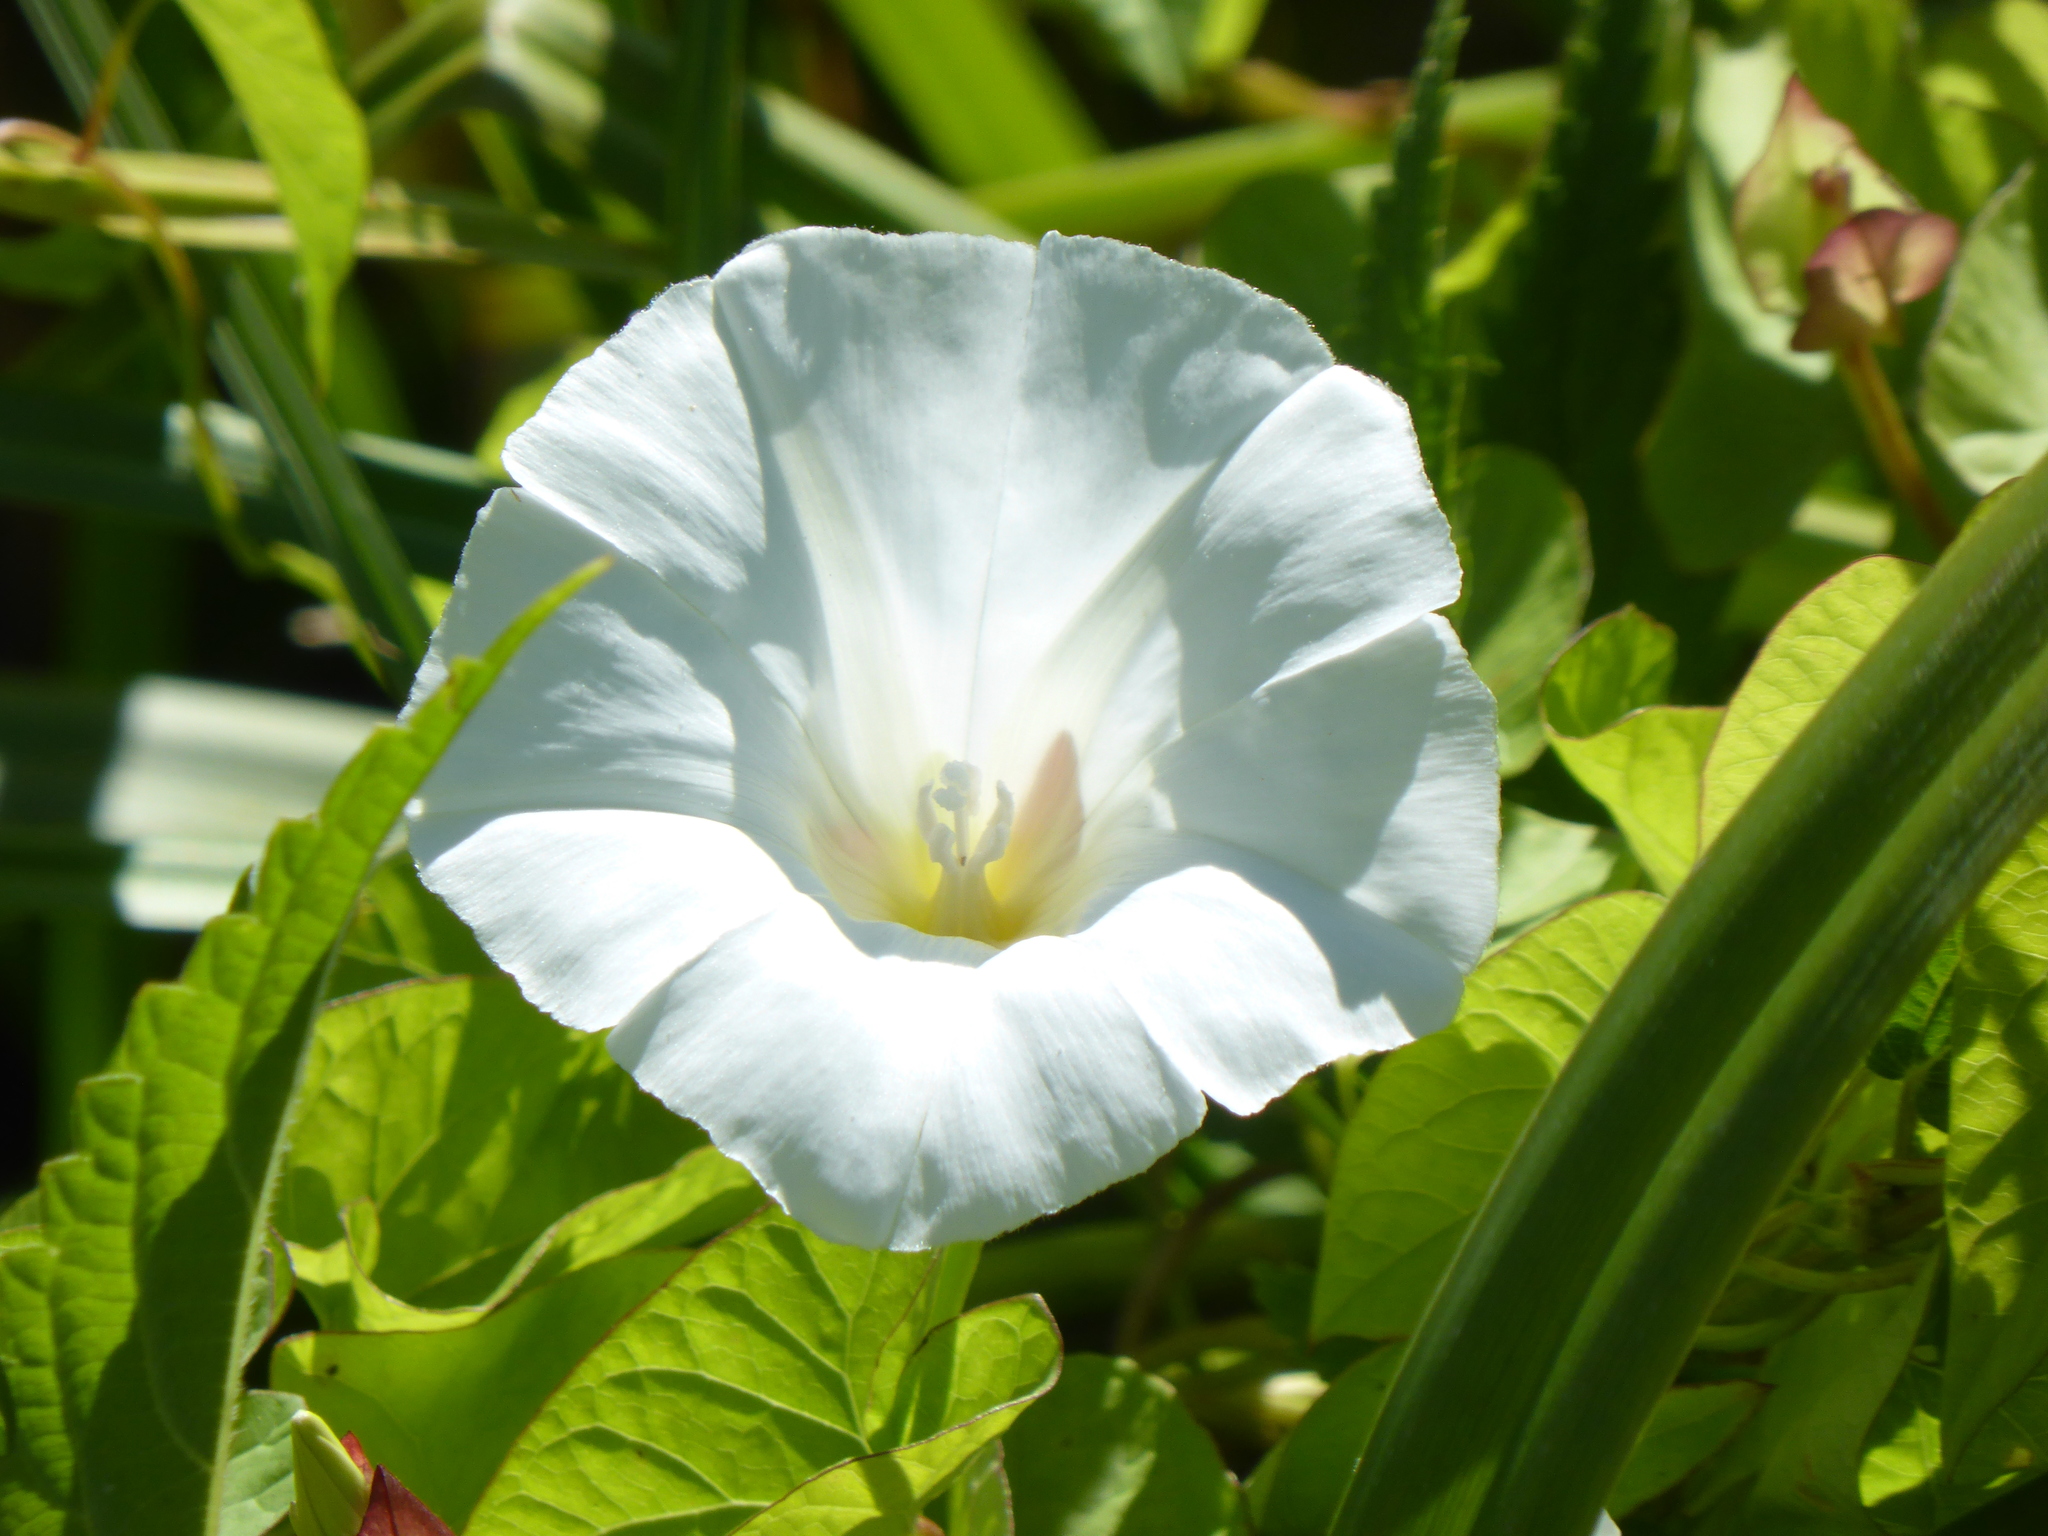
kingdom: Plantae
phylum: Tracheophyta
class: Magnoliopsida
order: Solanales
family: Convolvulaceae
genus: Calystegia
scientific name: Calystegia sepium
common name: Hedge bindweed
